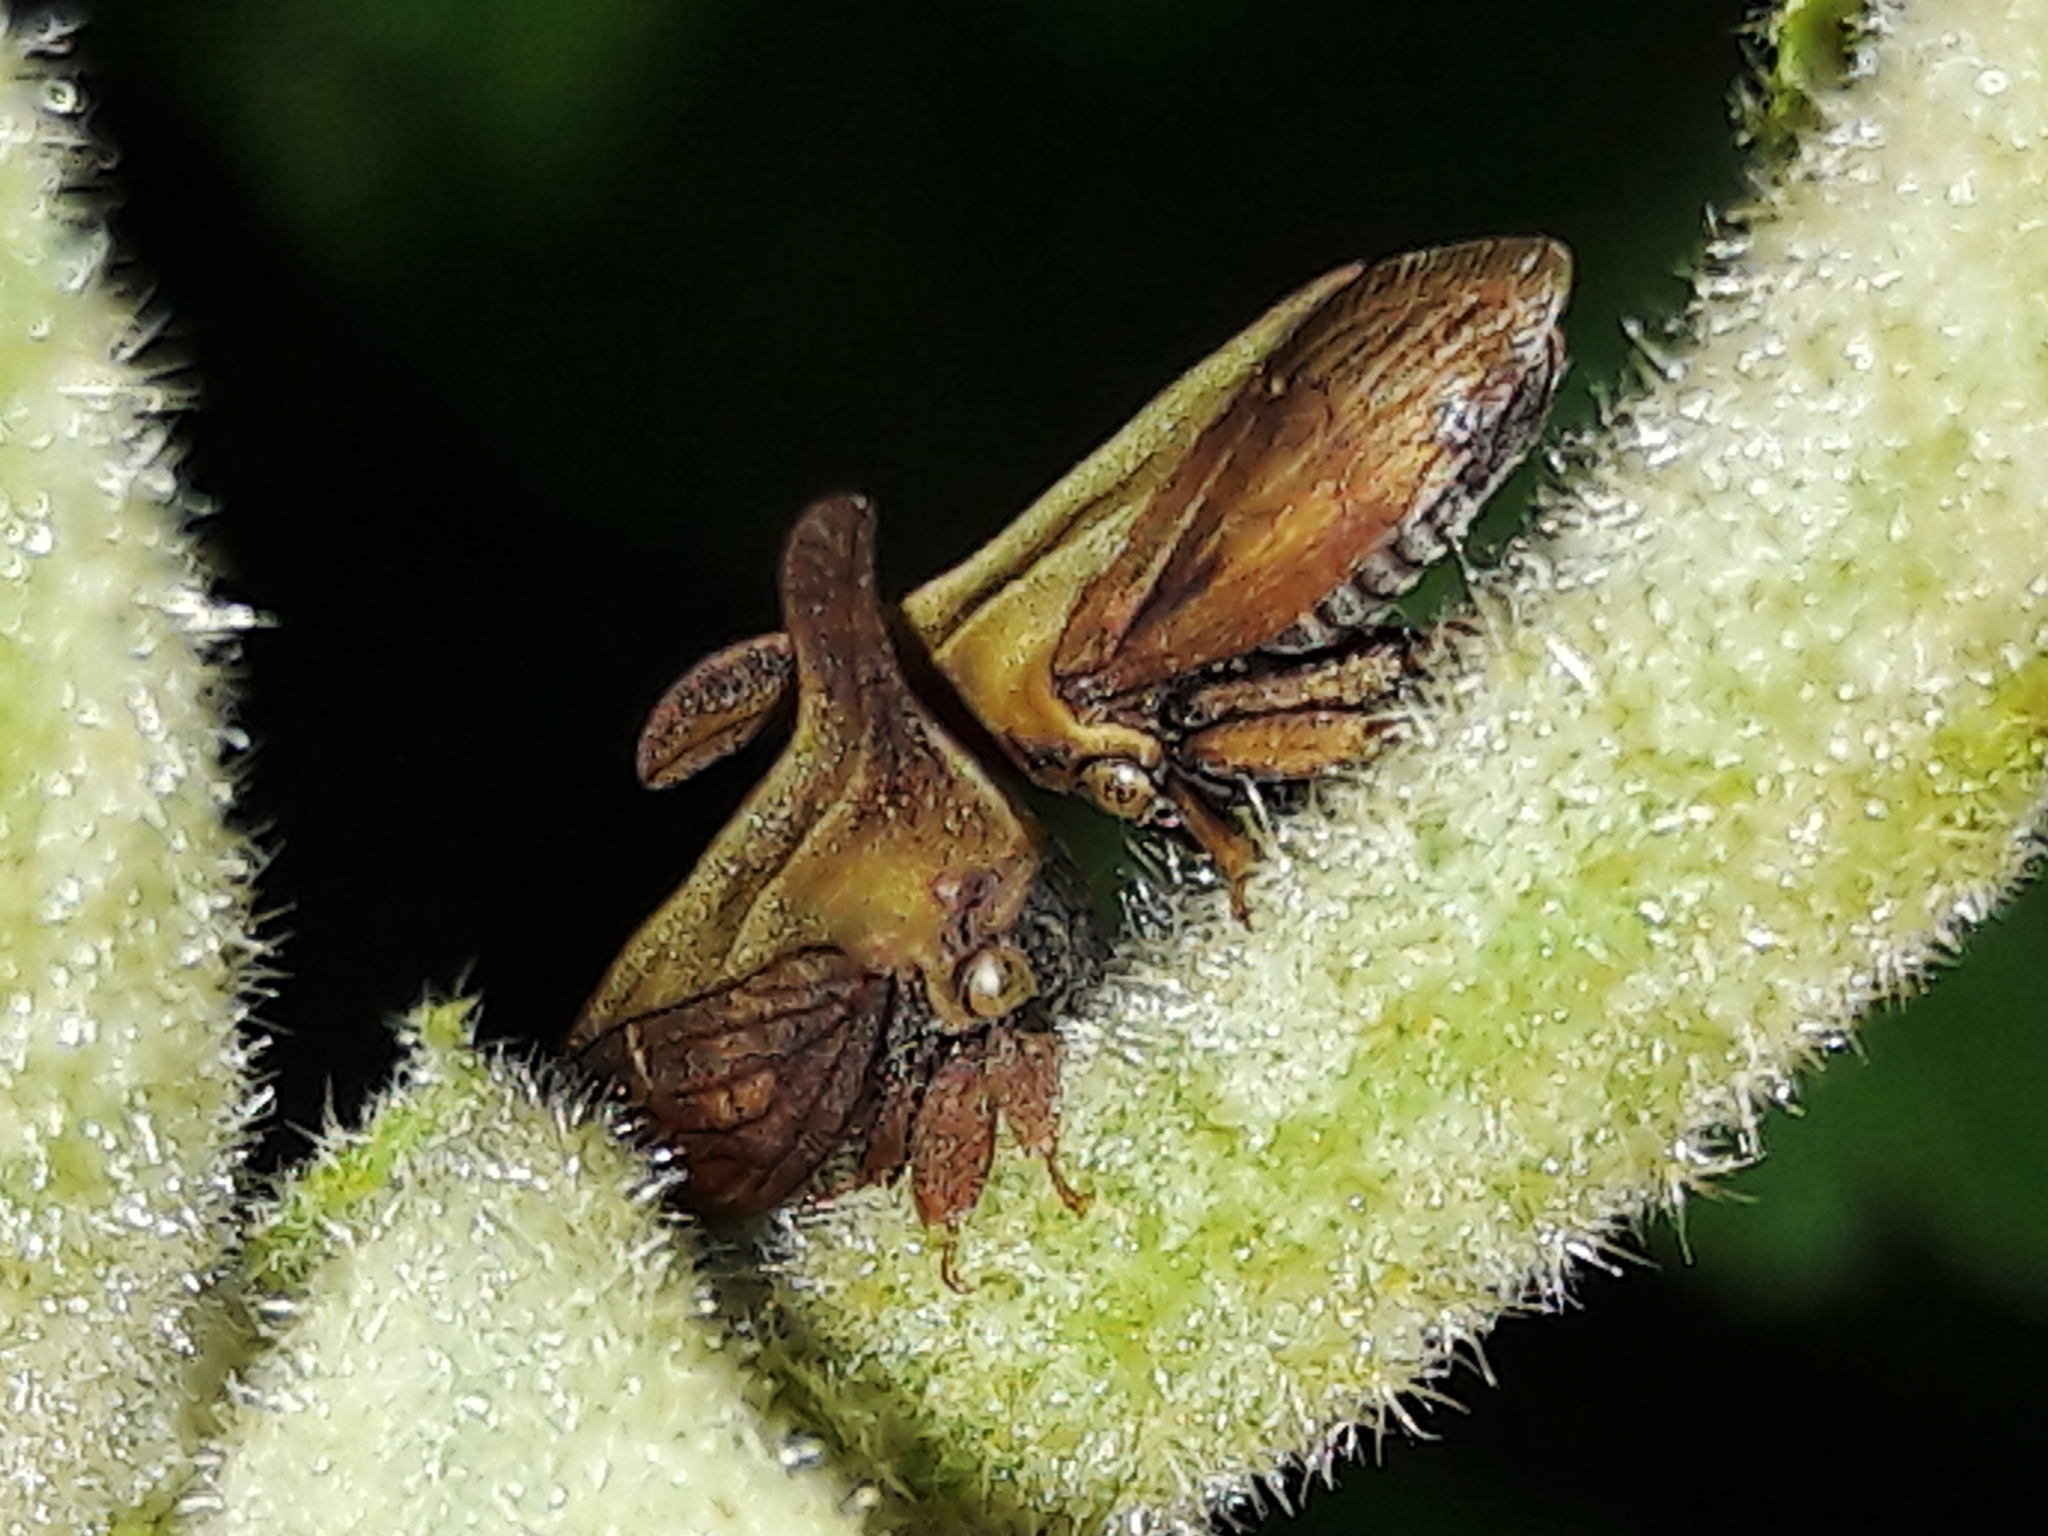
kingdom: Animalia
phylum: Arthropoda
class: Insecta
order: Hemiptera
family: Membracidae
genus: Enchenopa
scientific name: Enchenopa gracilis
